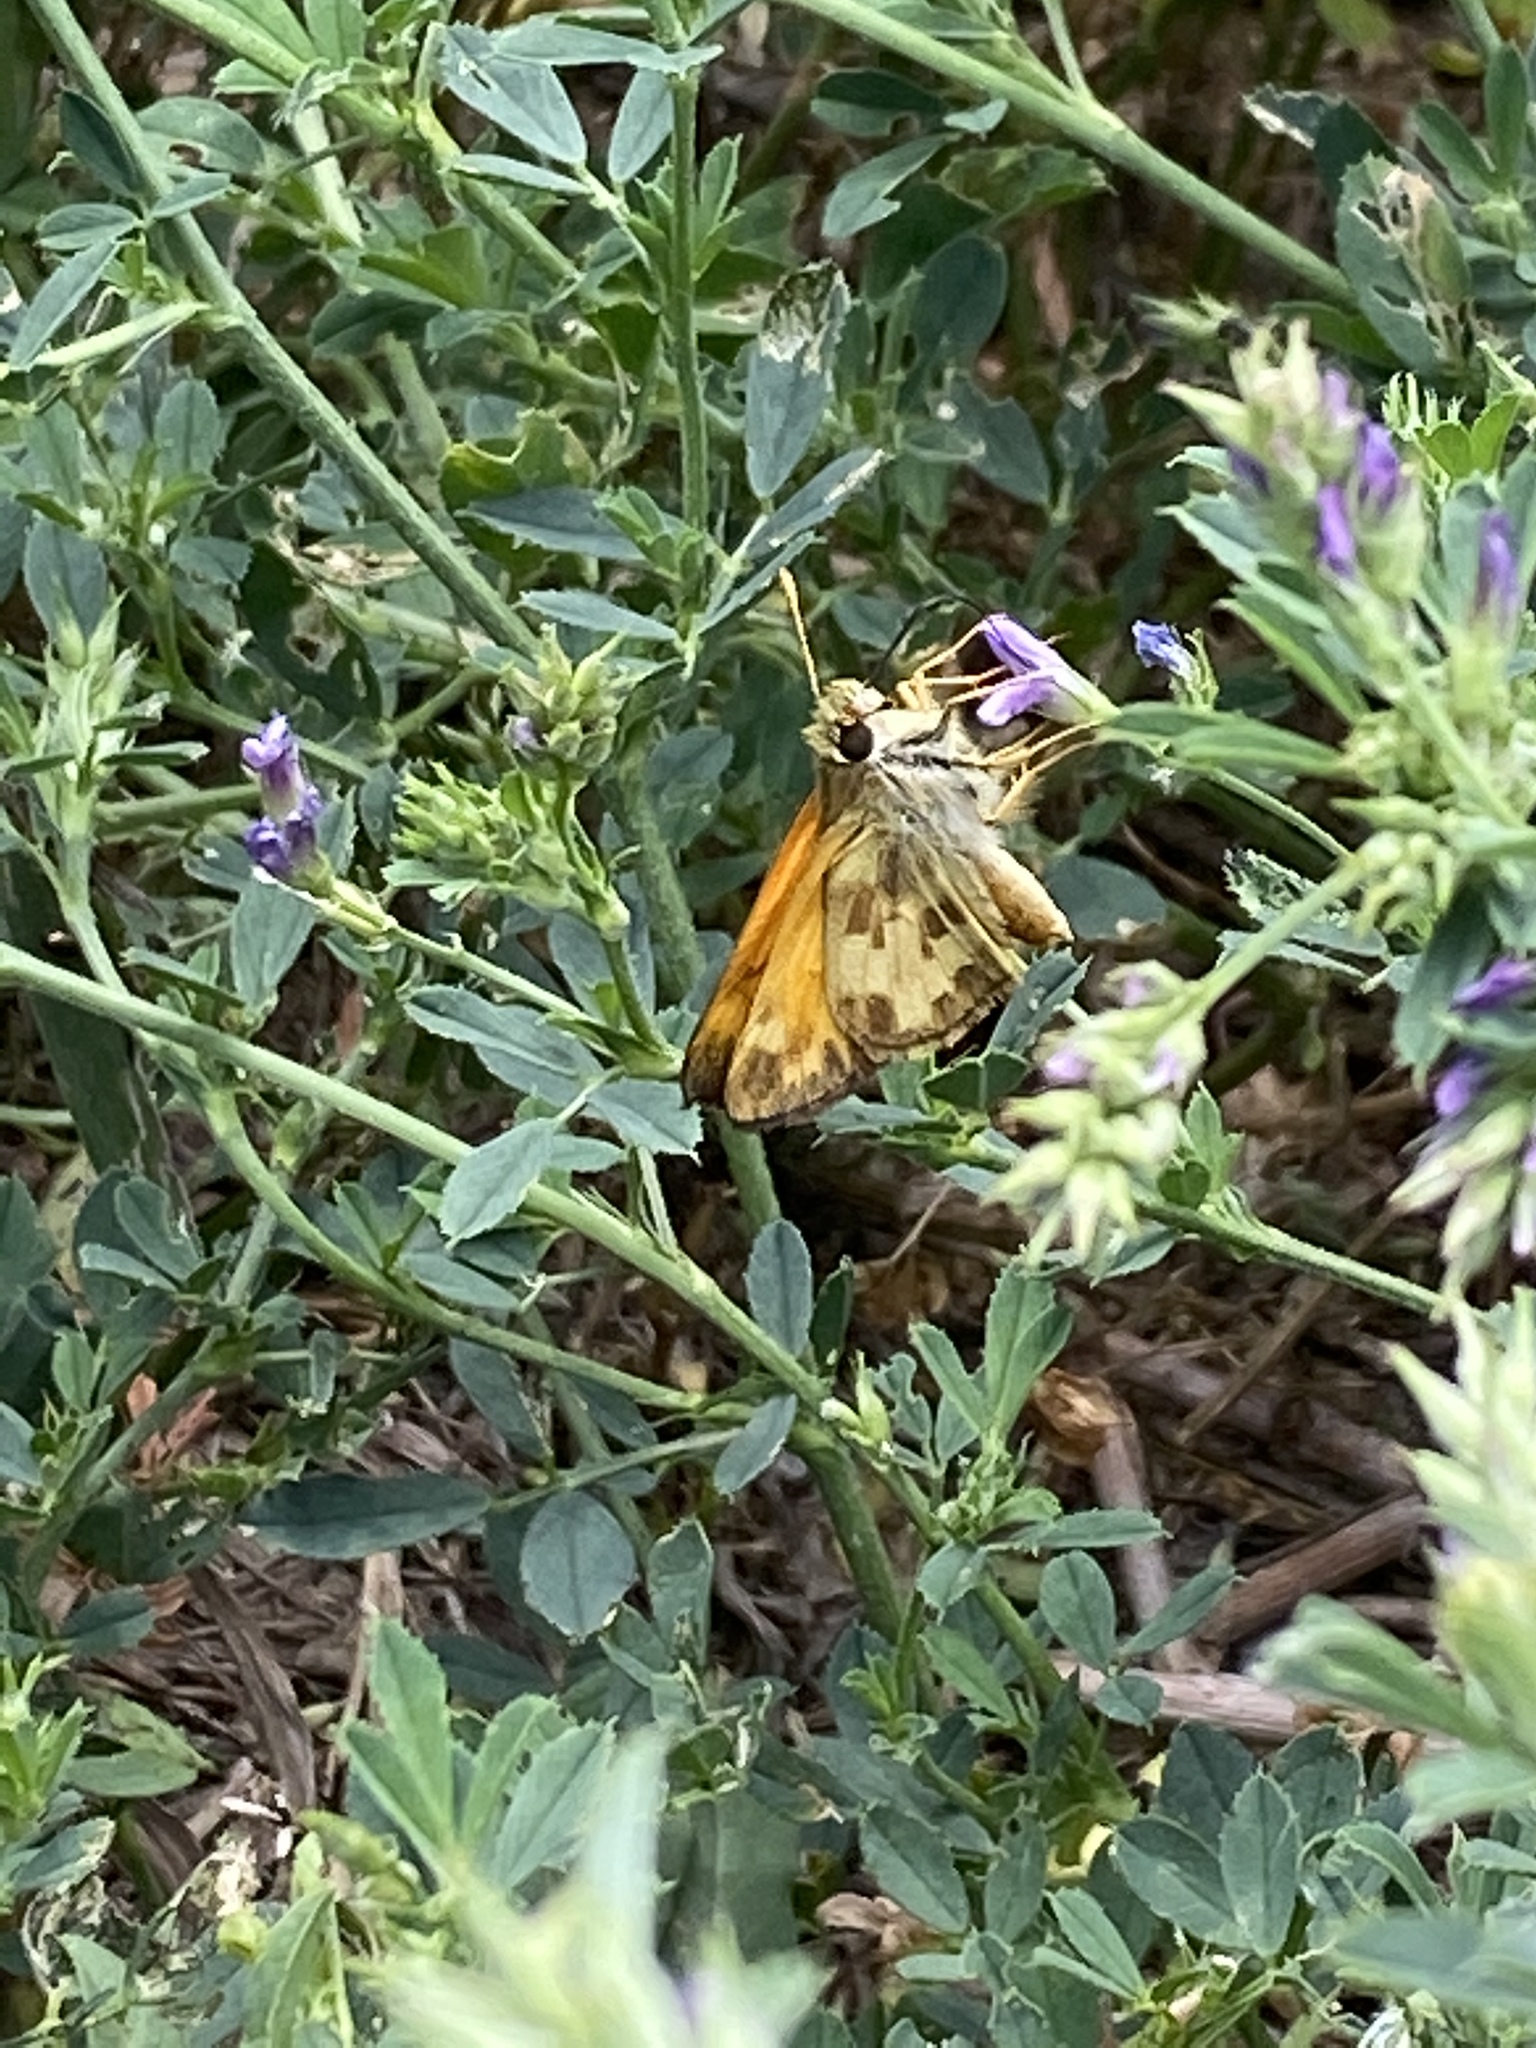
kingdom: Animalia
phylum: Arthropoda
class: Insecta
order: Lepidoptera
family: Hesperiidae
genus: Lon
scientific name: Lon taxiles
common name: Taxiles skipper
